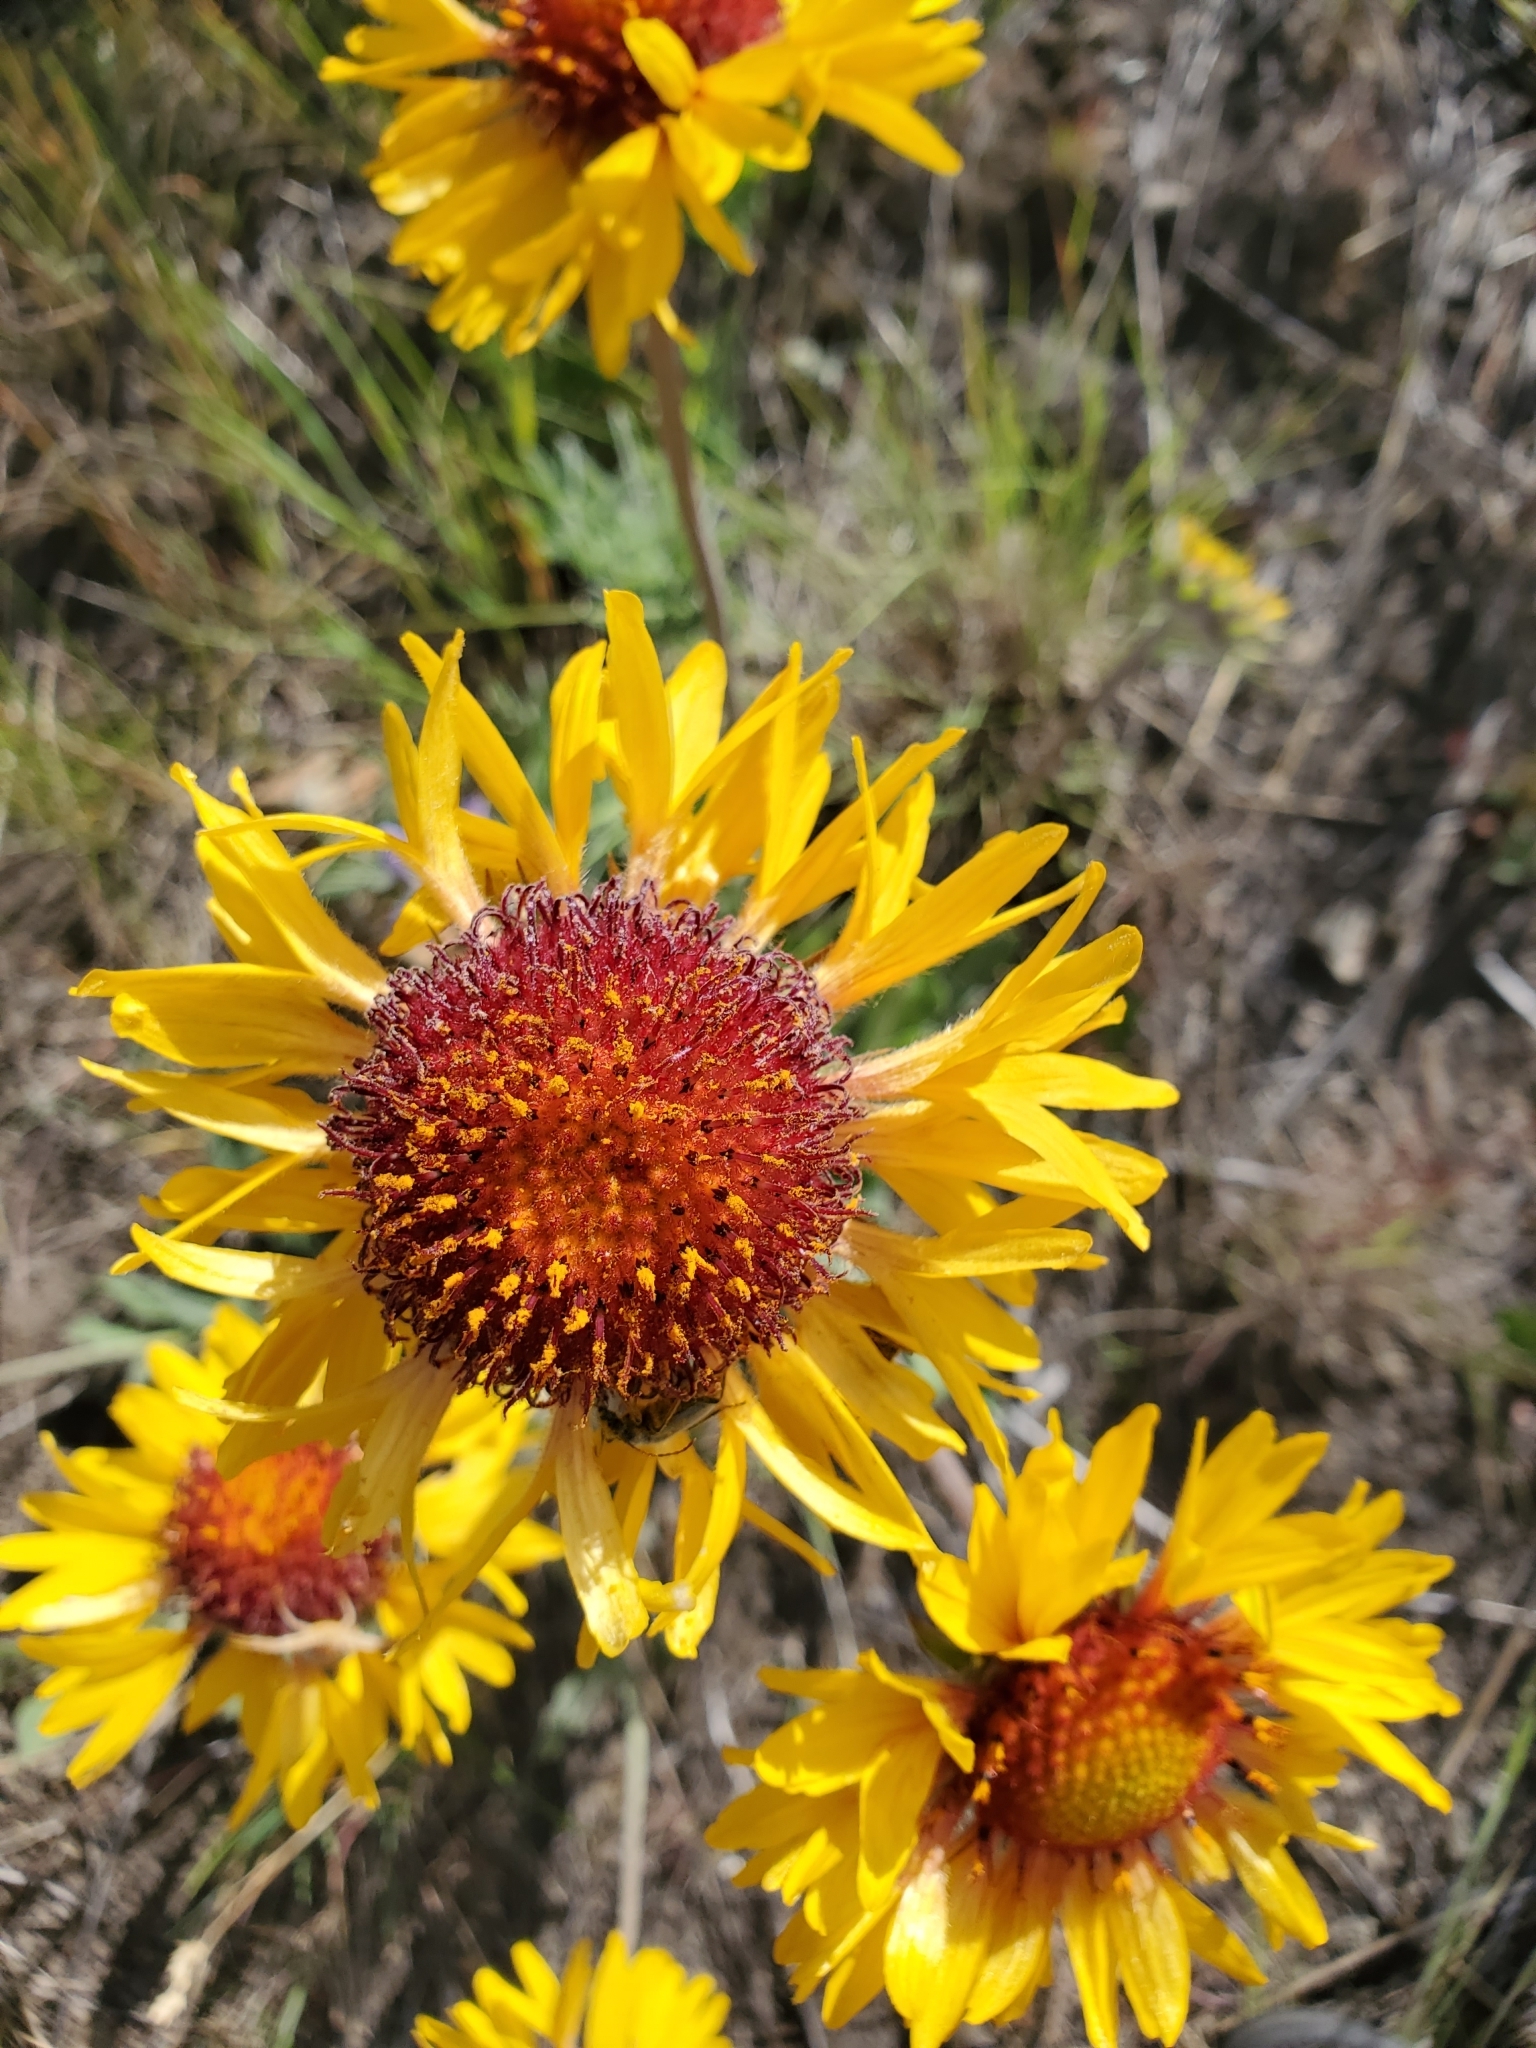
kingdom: Plantae
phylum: Tracheophyta
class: Magnoliopsida
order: Asterales
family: Asteraceae
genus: Gaillardia
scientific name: Gaillardia aristata
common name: Blanket-flower
